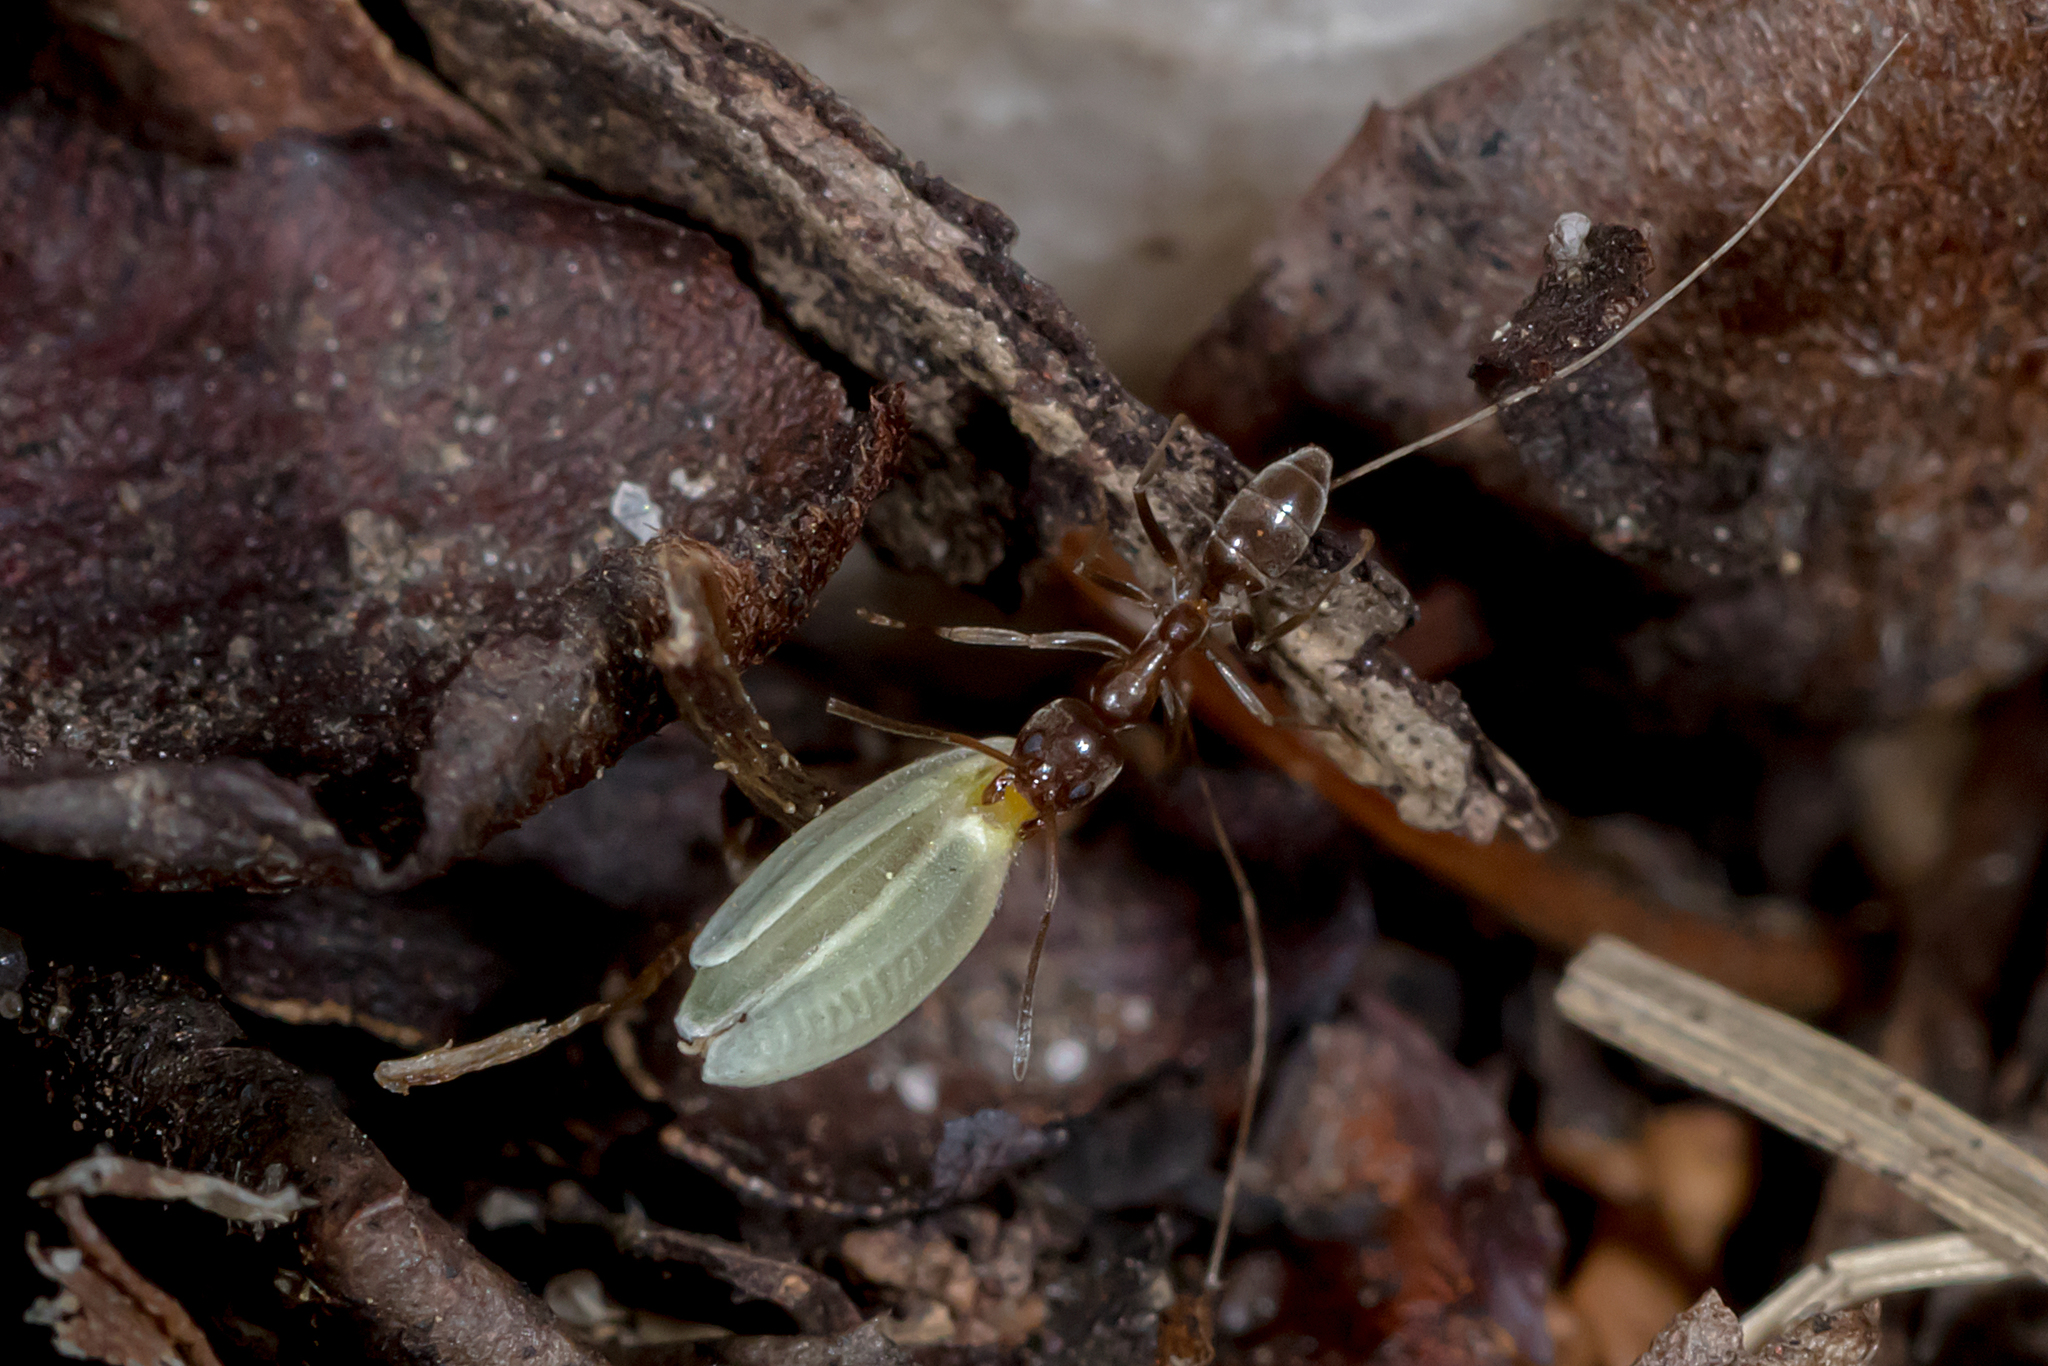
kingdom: Animalia
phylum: Arthropoda
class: Insecta
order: Hymenoptera
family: Formicidae
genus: Linepithema
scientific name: Linepithema humile
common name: Argentine ant
